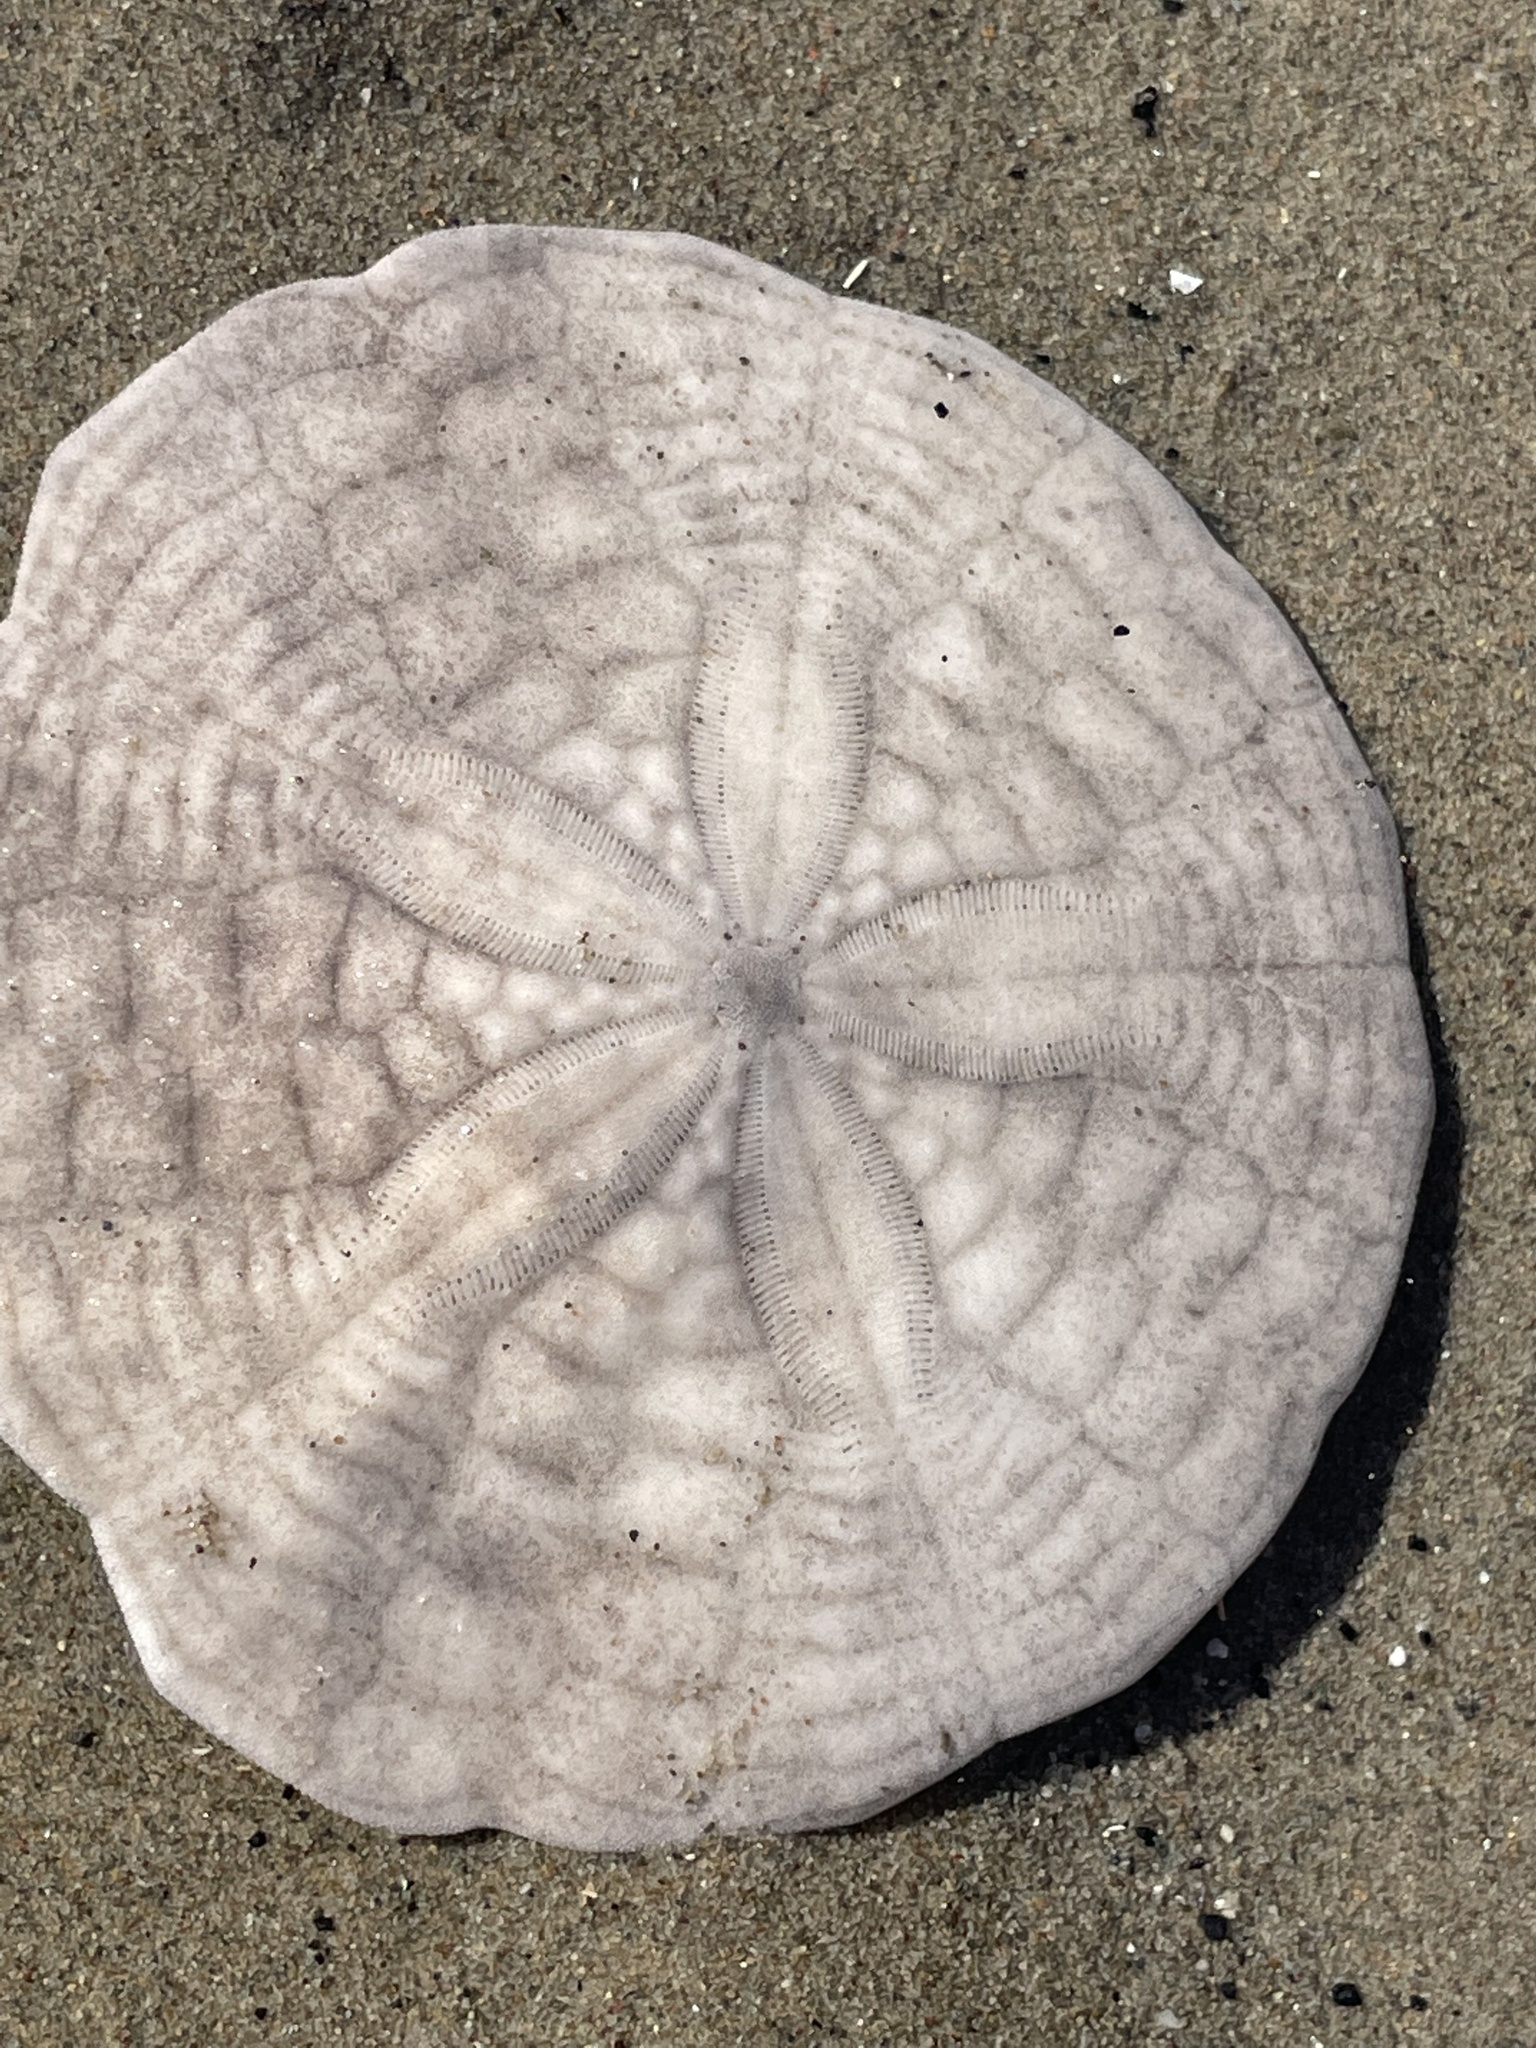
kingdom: Animalia
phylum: Echinodermata
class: Echinoidea
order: Echinolampadacea
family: Echinarachniidae
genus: Echinarachnius
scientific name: Echinarachnius parma
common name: Common sand dollar
